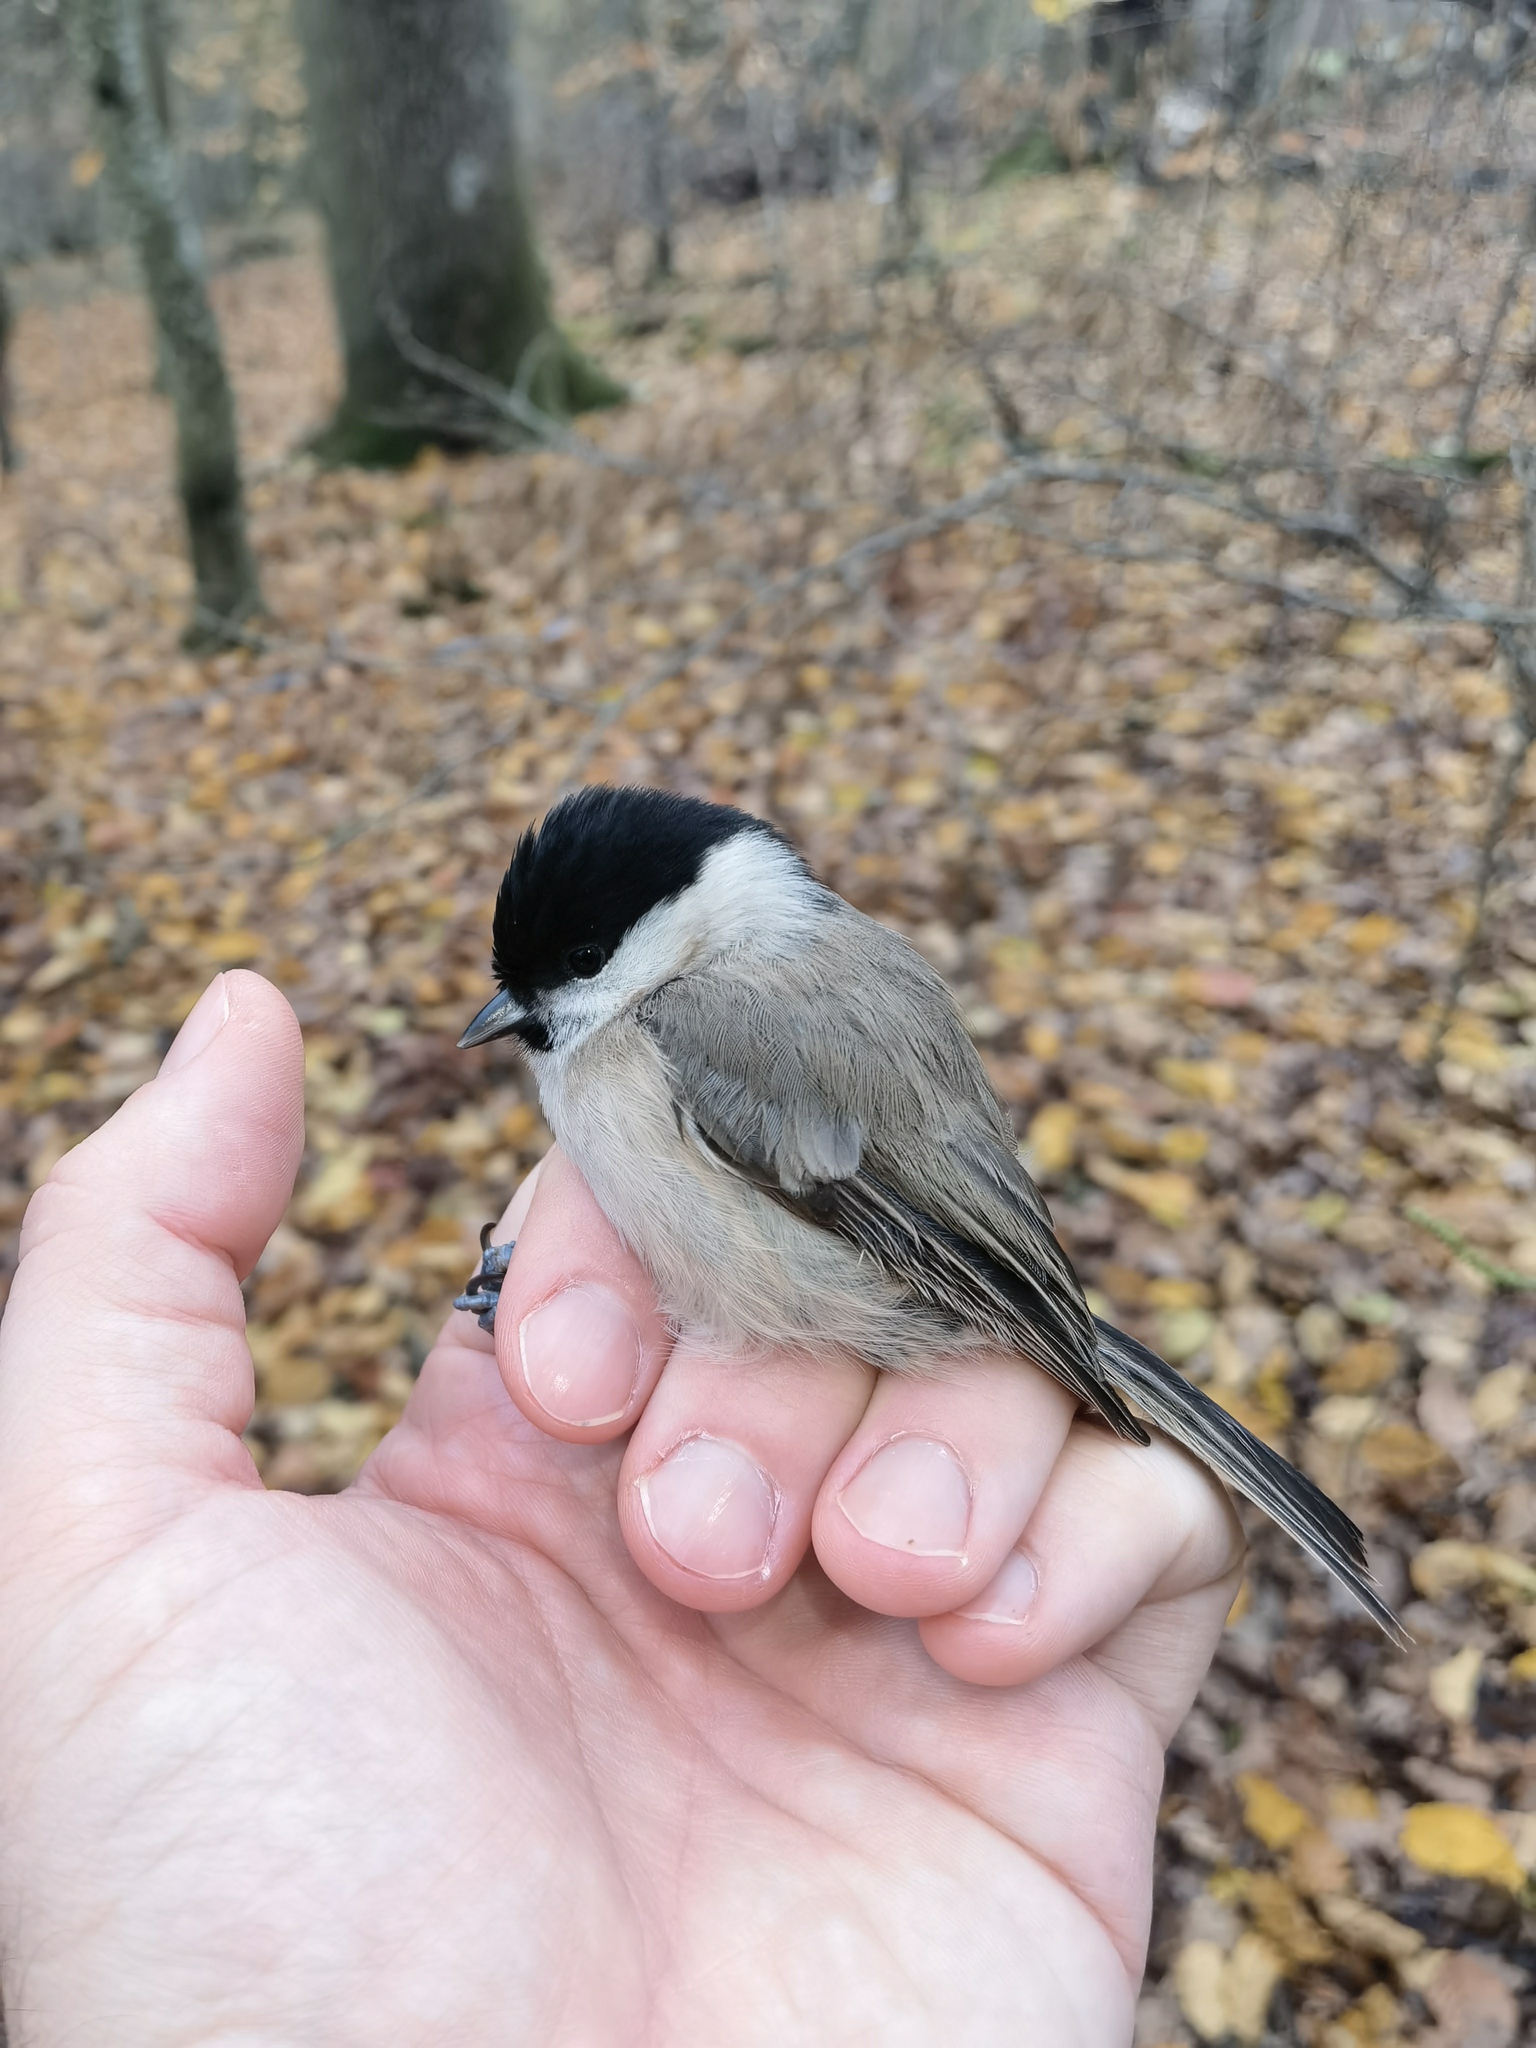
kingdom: Animalia
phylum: Chordata
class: Aves
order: Passeriformes
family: Paridae
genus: Poecile
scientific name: Poecile palustris
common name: Marsh tit
